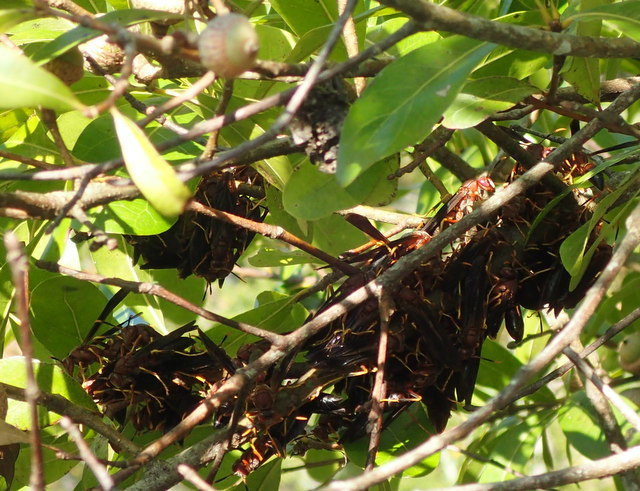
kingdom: Animalia
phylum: Arthropoda
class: Insecta
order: Hymenoptera
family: Eumenidae
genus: Polistes
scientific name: Polistes annularis
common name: Ringed paper wasp
